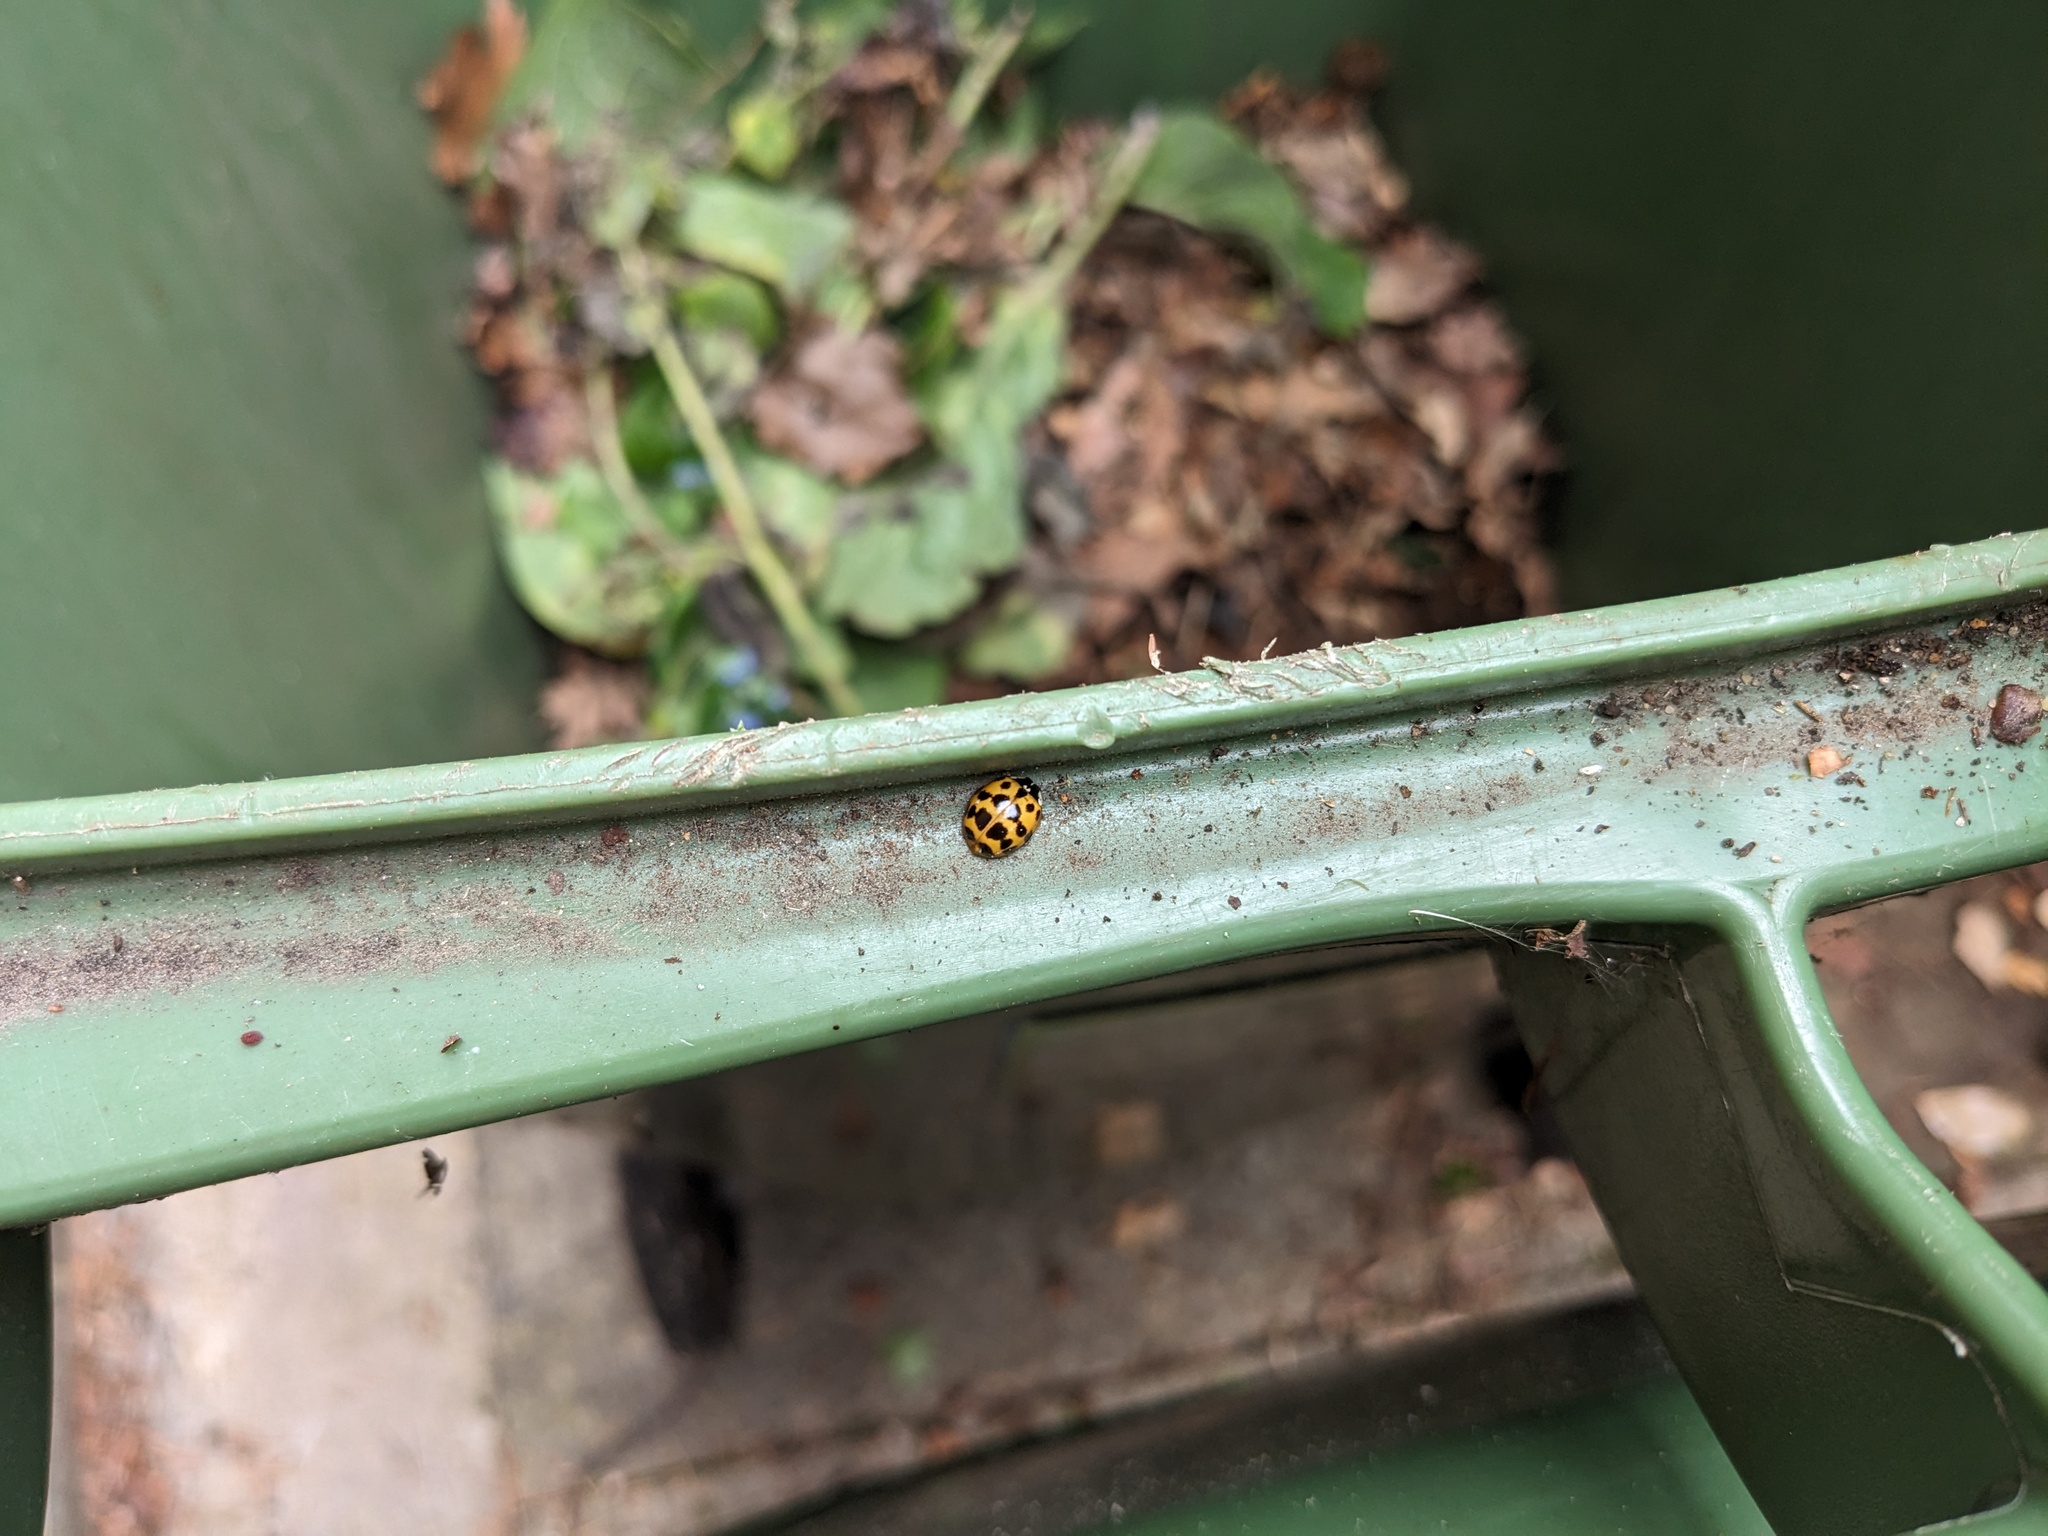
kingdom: Animalia
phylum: Arthropoda
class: Insecta
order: Coleoptera
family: Coccinellidae
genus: Harmonia
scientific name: Harmonia axyridis
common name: Harlequin ladybird
